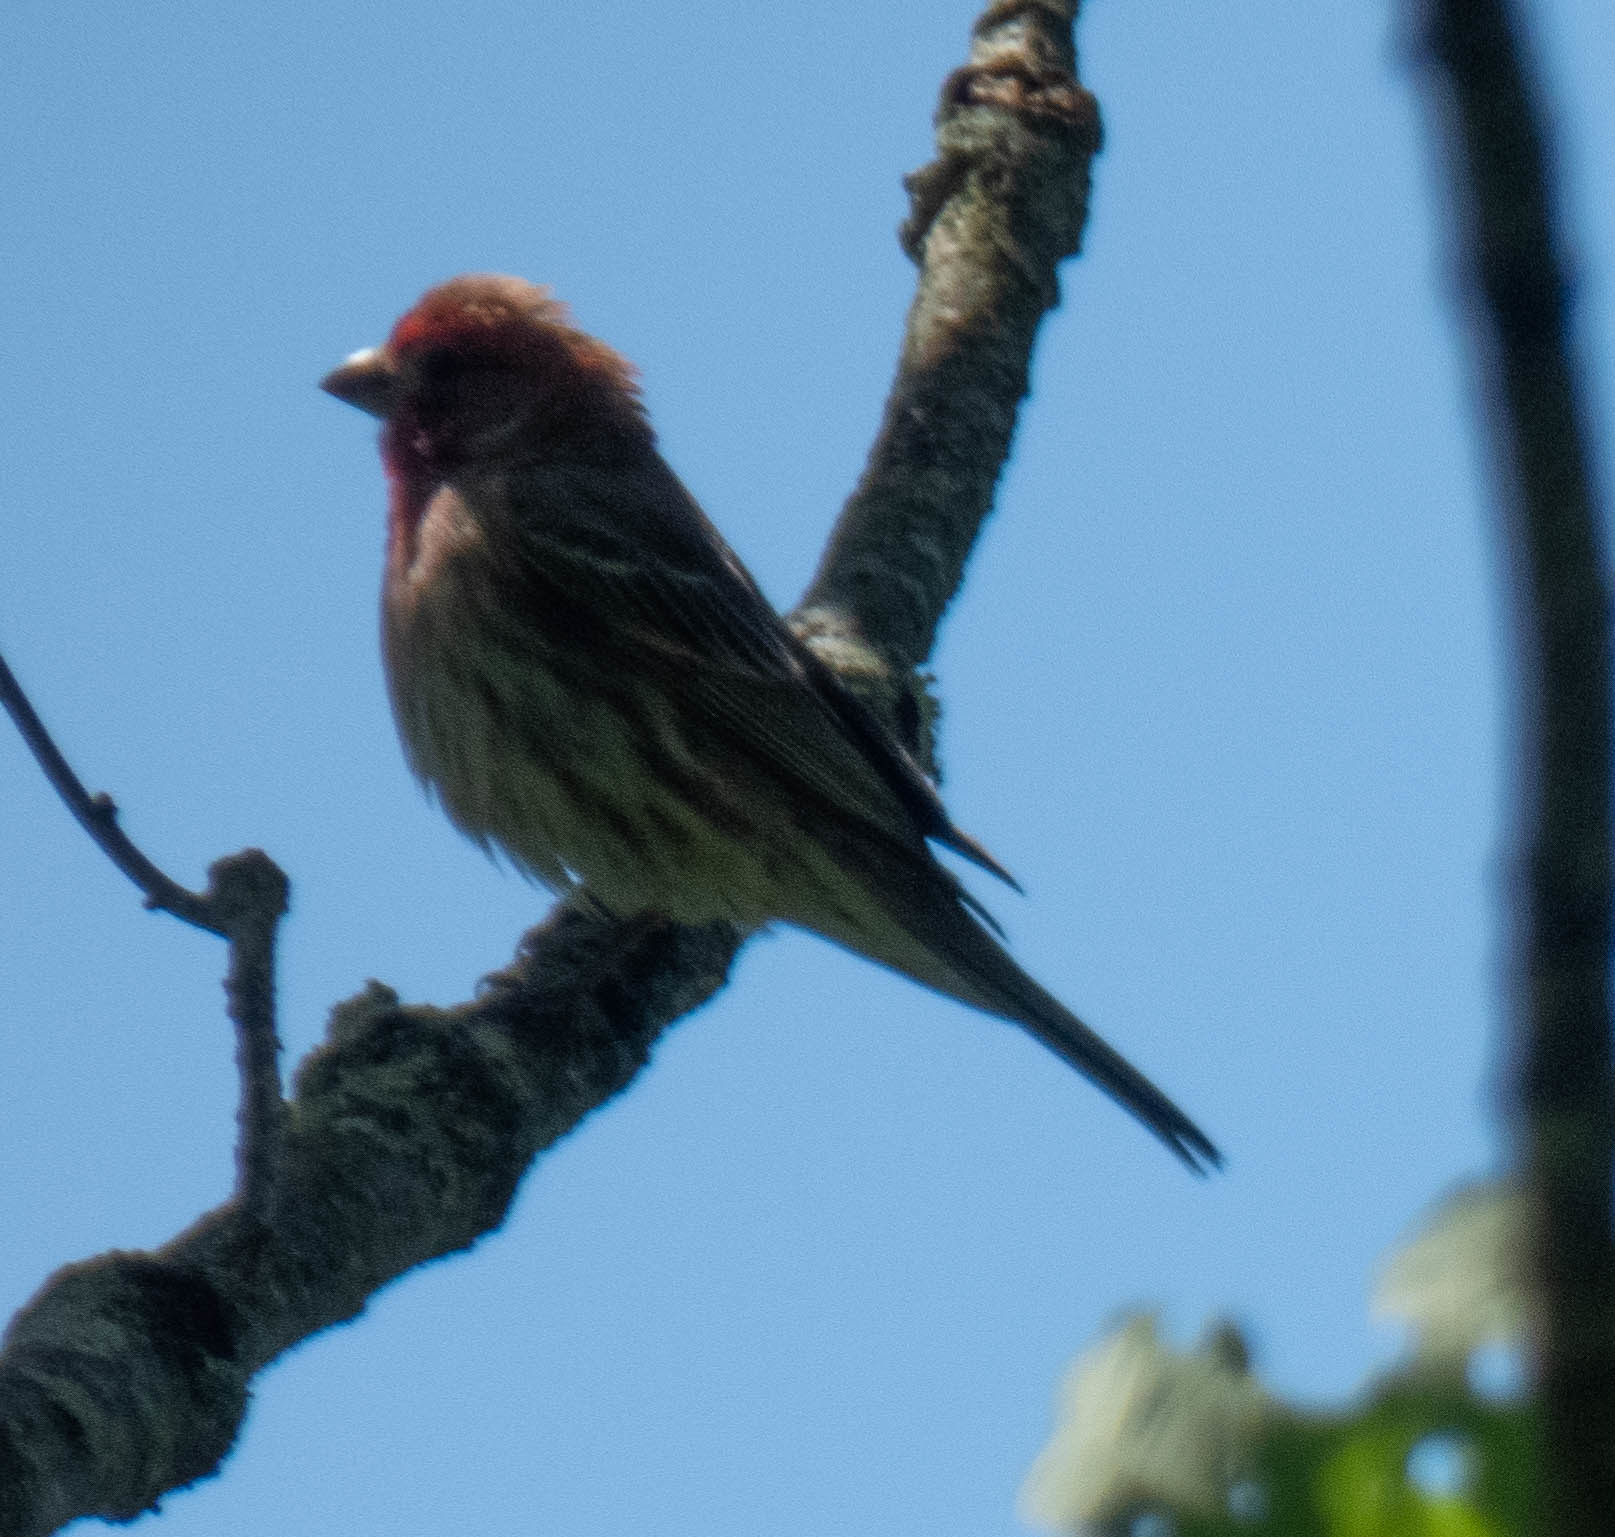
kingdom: Animalia
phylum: Chordata
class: Aves
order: Passeriformes
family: Fringillidae
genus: Haemorhous
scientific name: Haemorhous mexicanus
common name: House finch
